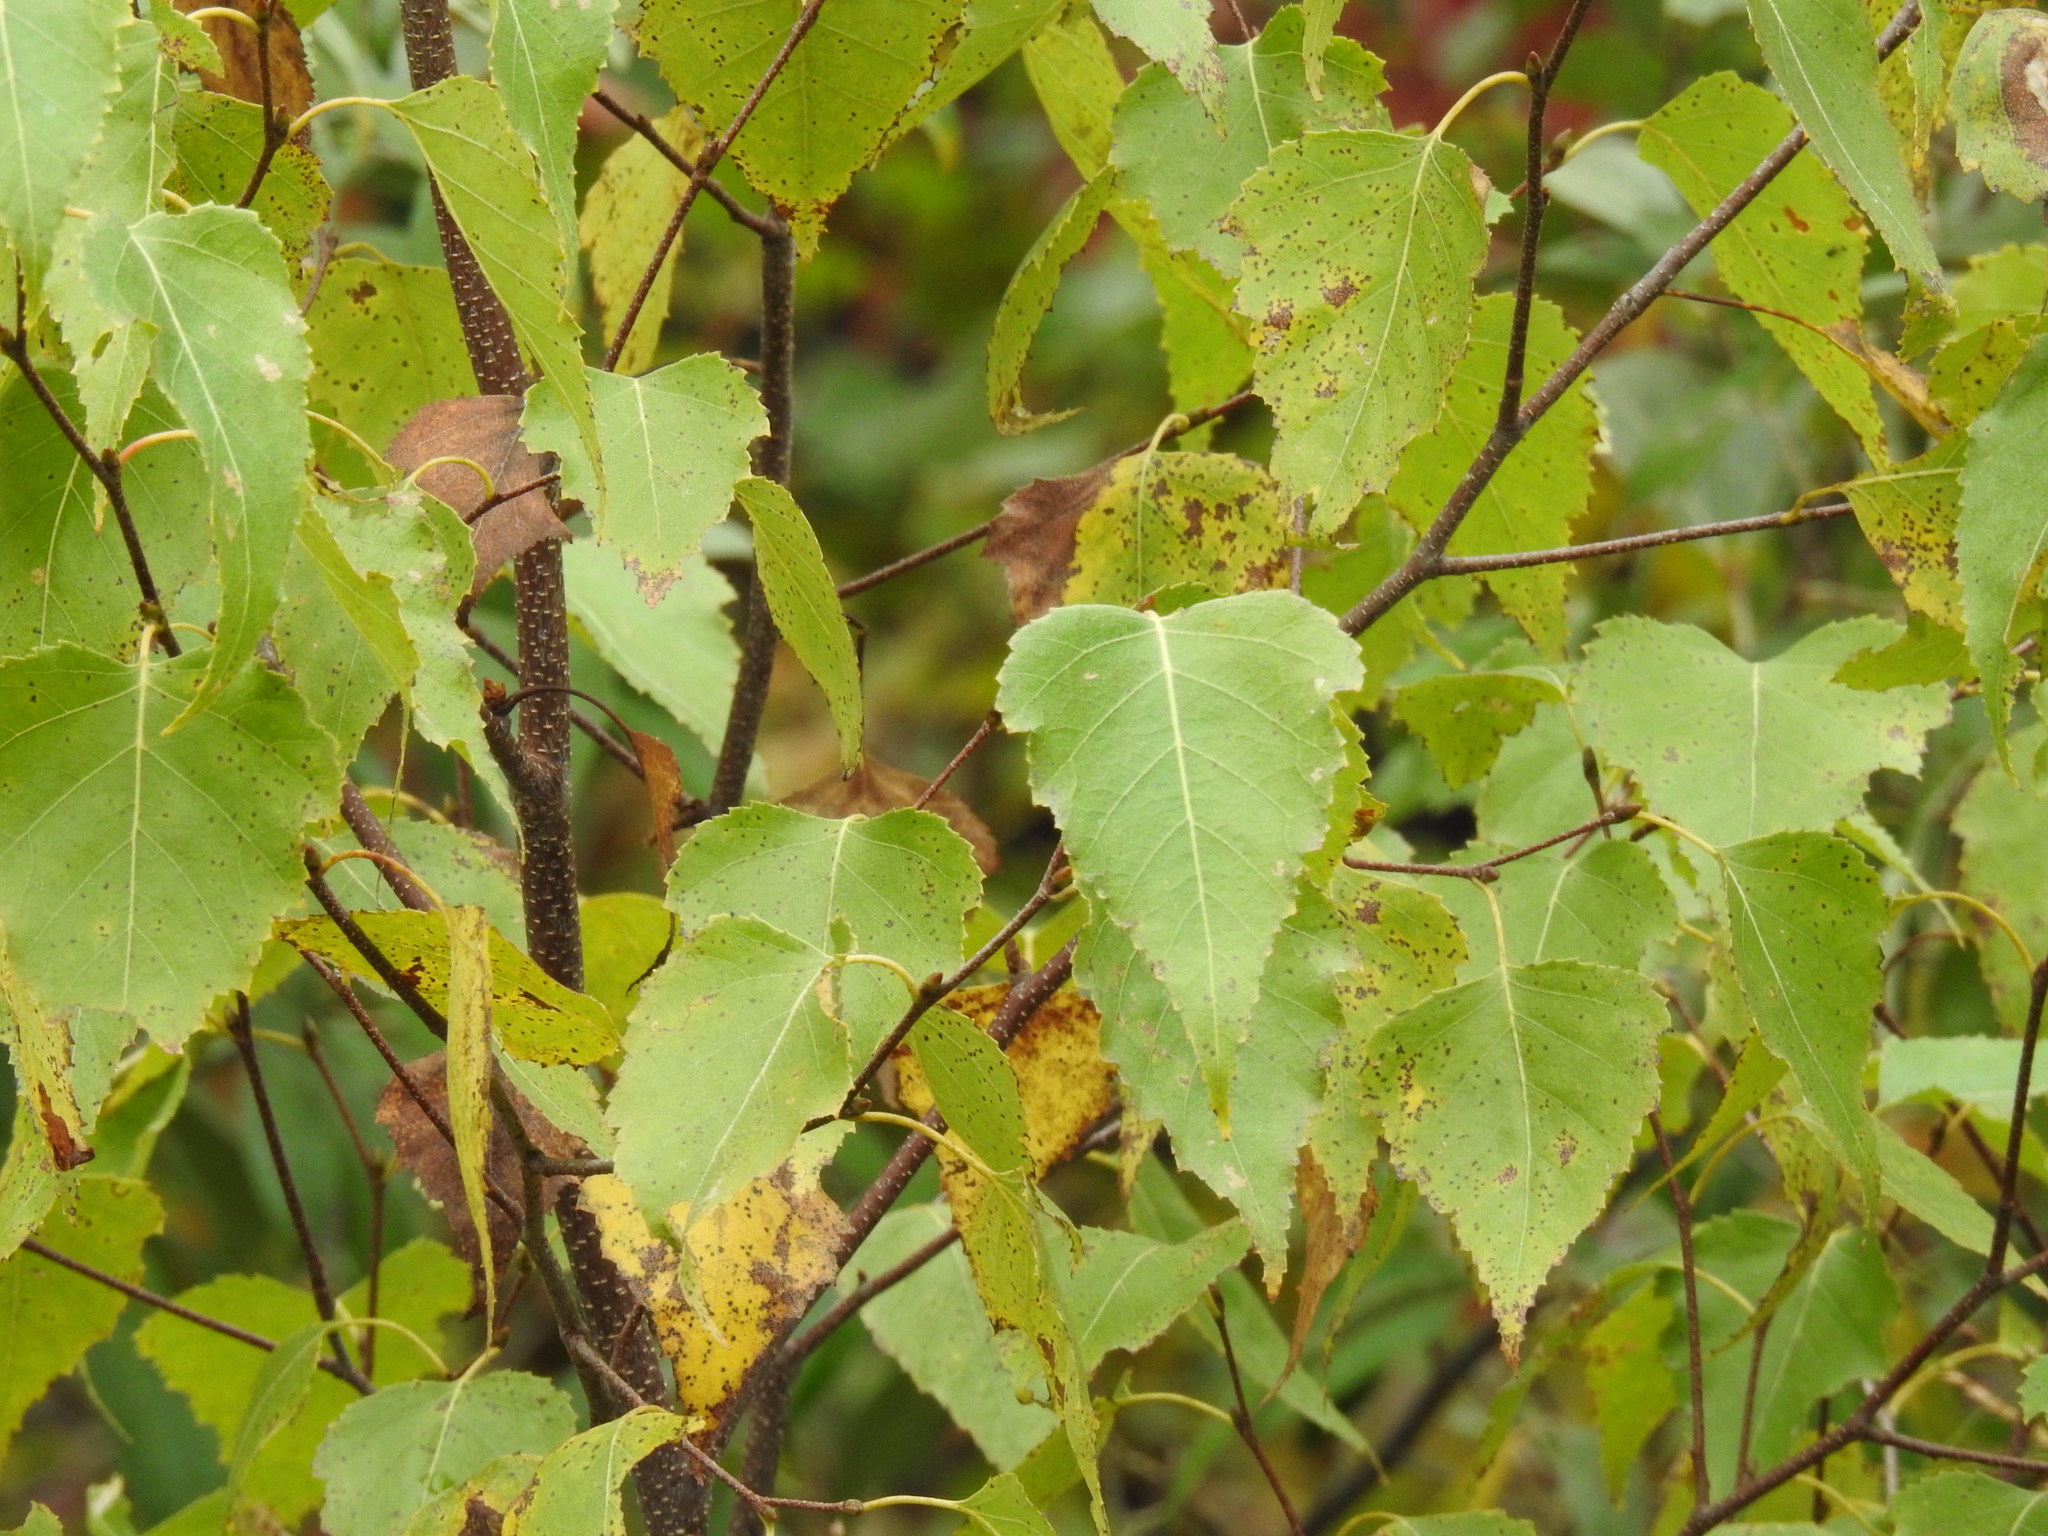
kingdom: Plantae
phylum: Tracheophyta
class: Magnoliopsida
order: Fagales
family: Betulaceae
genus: Betula
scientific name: Betula populifolia
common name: Fire birch
